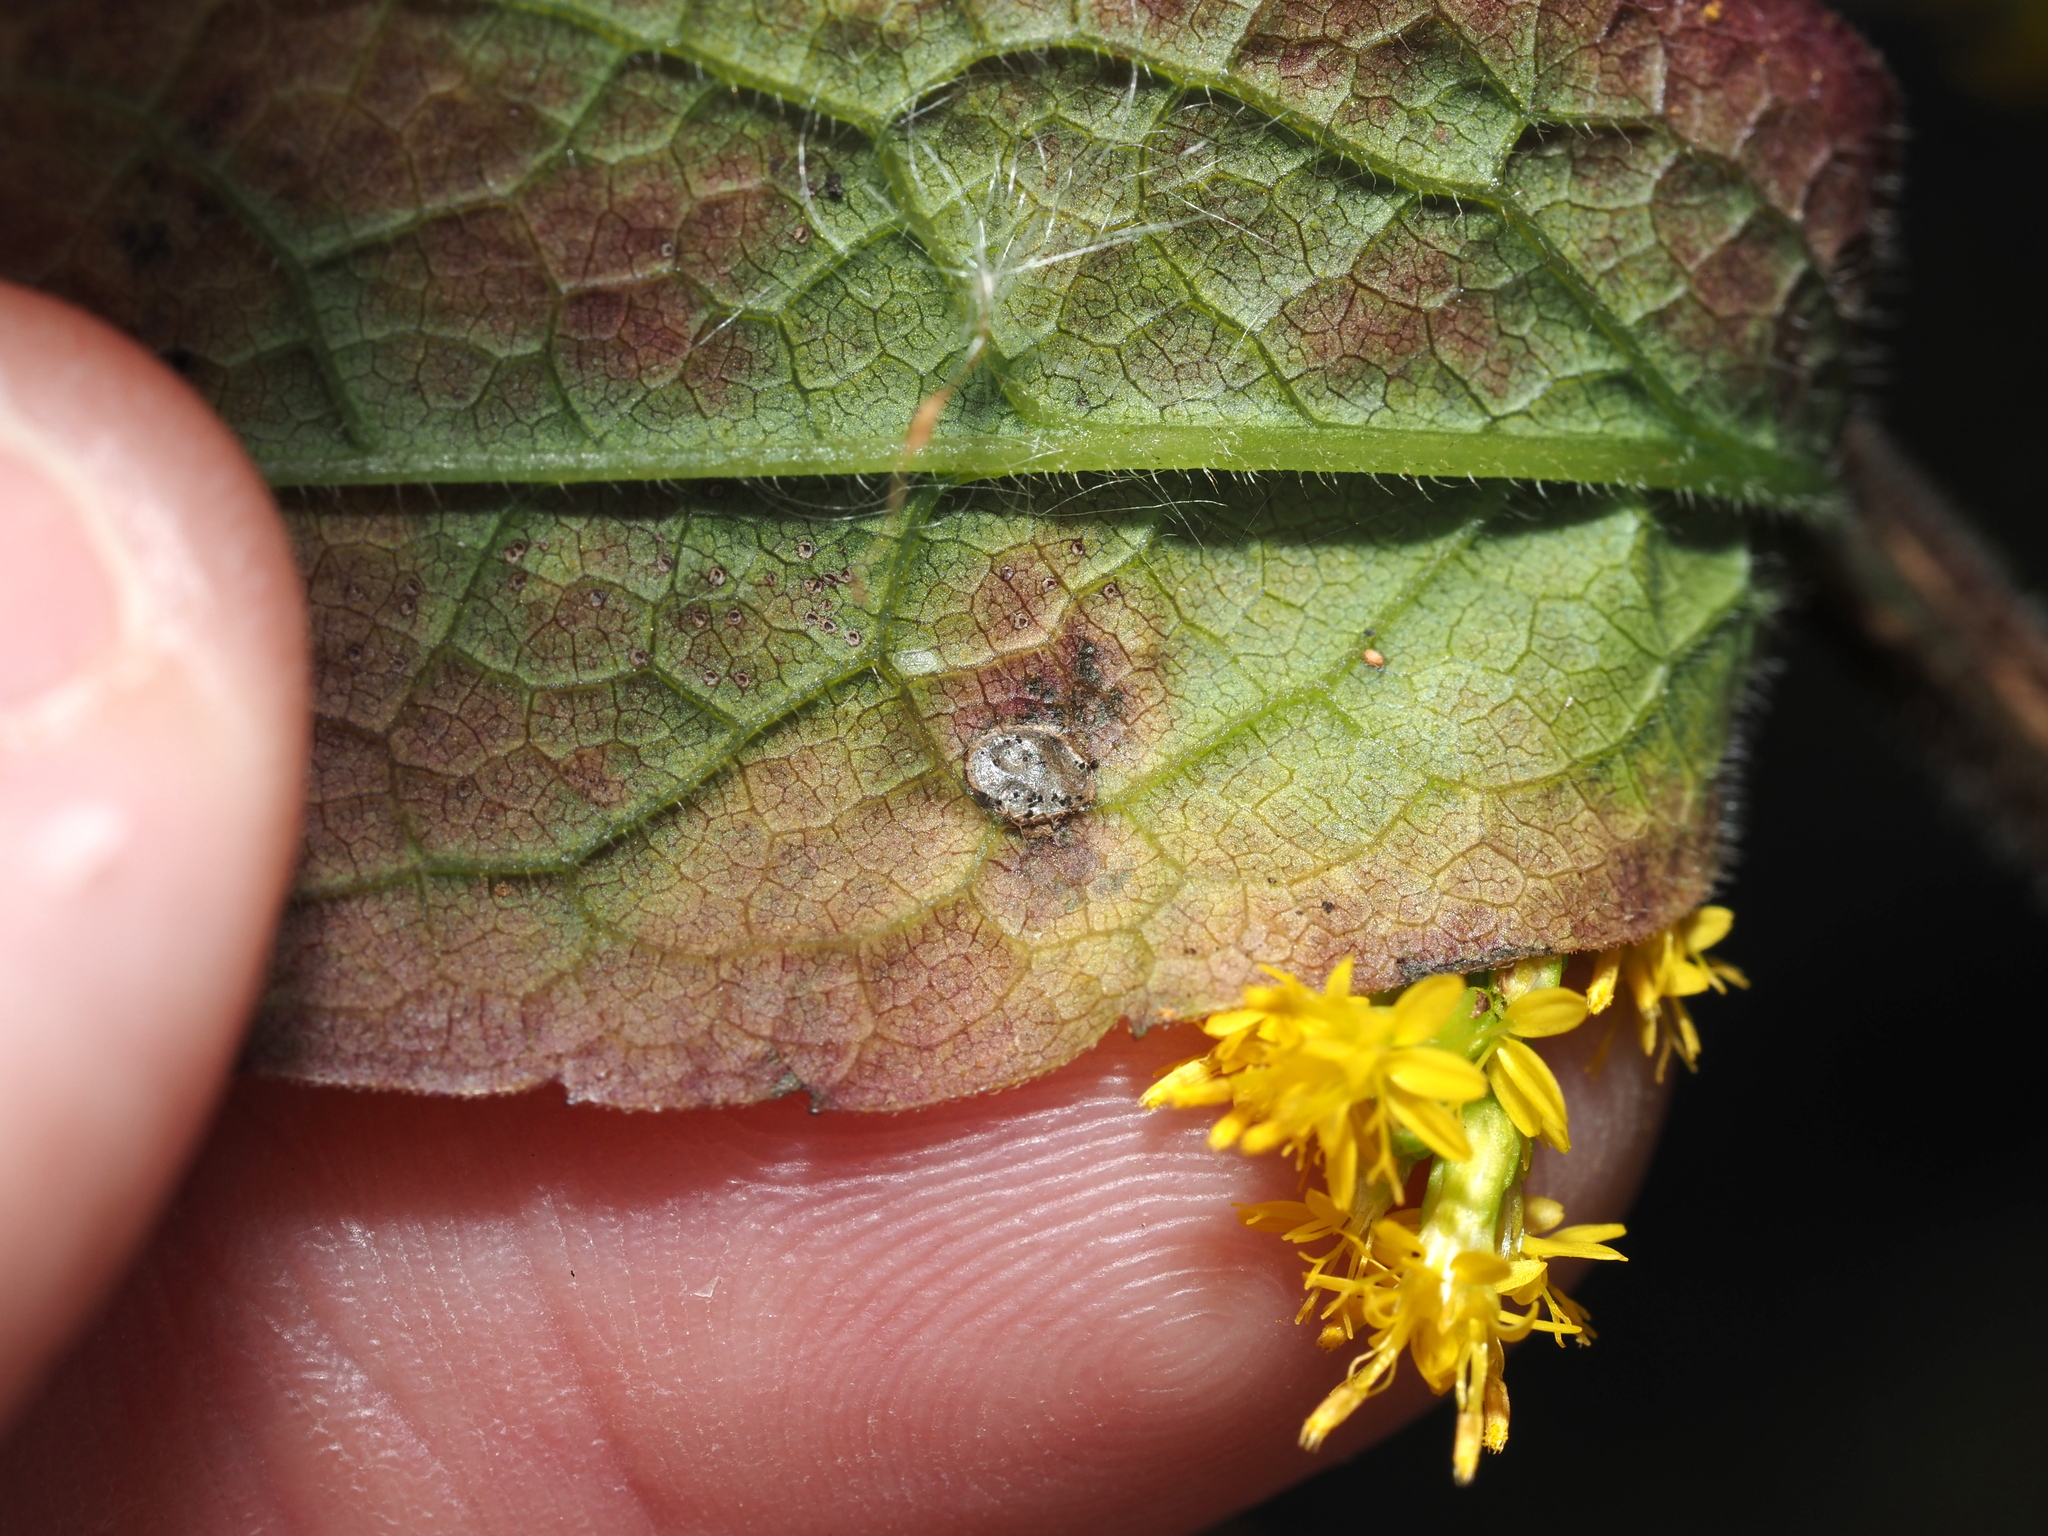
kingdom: Animalia
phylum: Arthropoda
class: Insecta
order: Diptera
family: Cecidomyiidae
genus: Asteromyia
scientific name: Asteromyia carbonifera
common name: Carbonifera goldenrod gall midge
